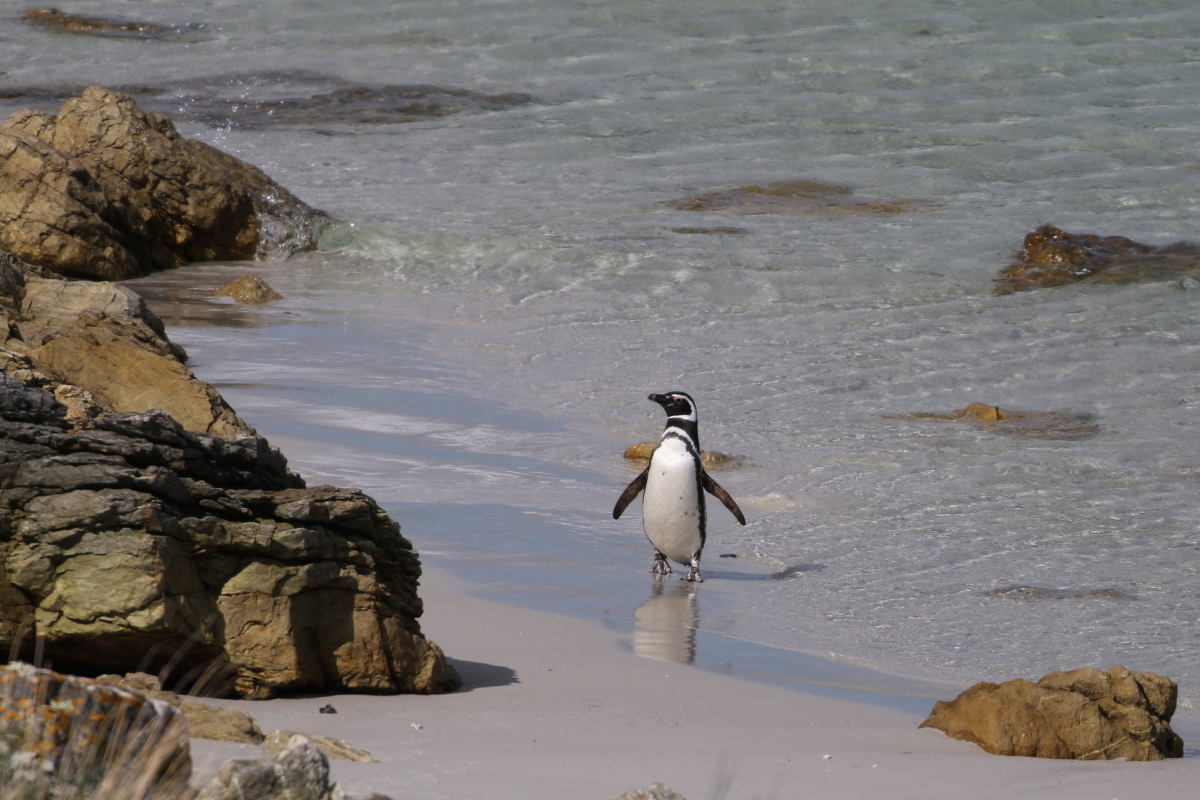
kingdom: Animalia
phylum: Chordata
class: Aves
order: Sphenisciformes
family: Spheniscidae
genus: Spheniscus
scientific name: Spheniscus magellanicus
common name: Magellanic penguin
